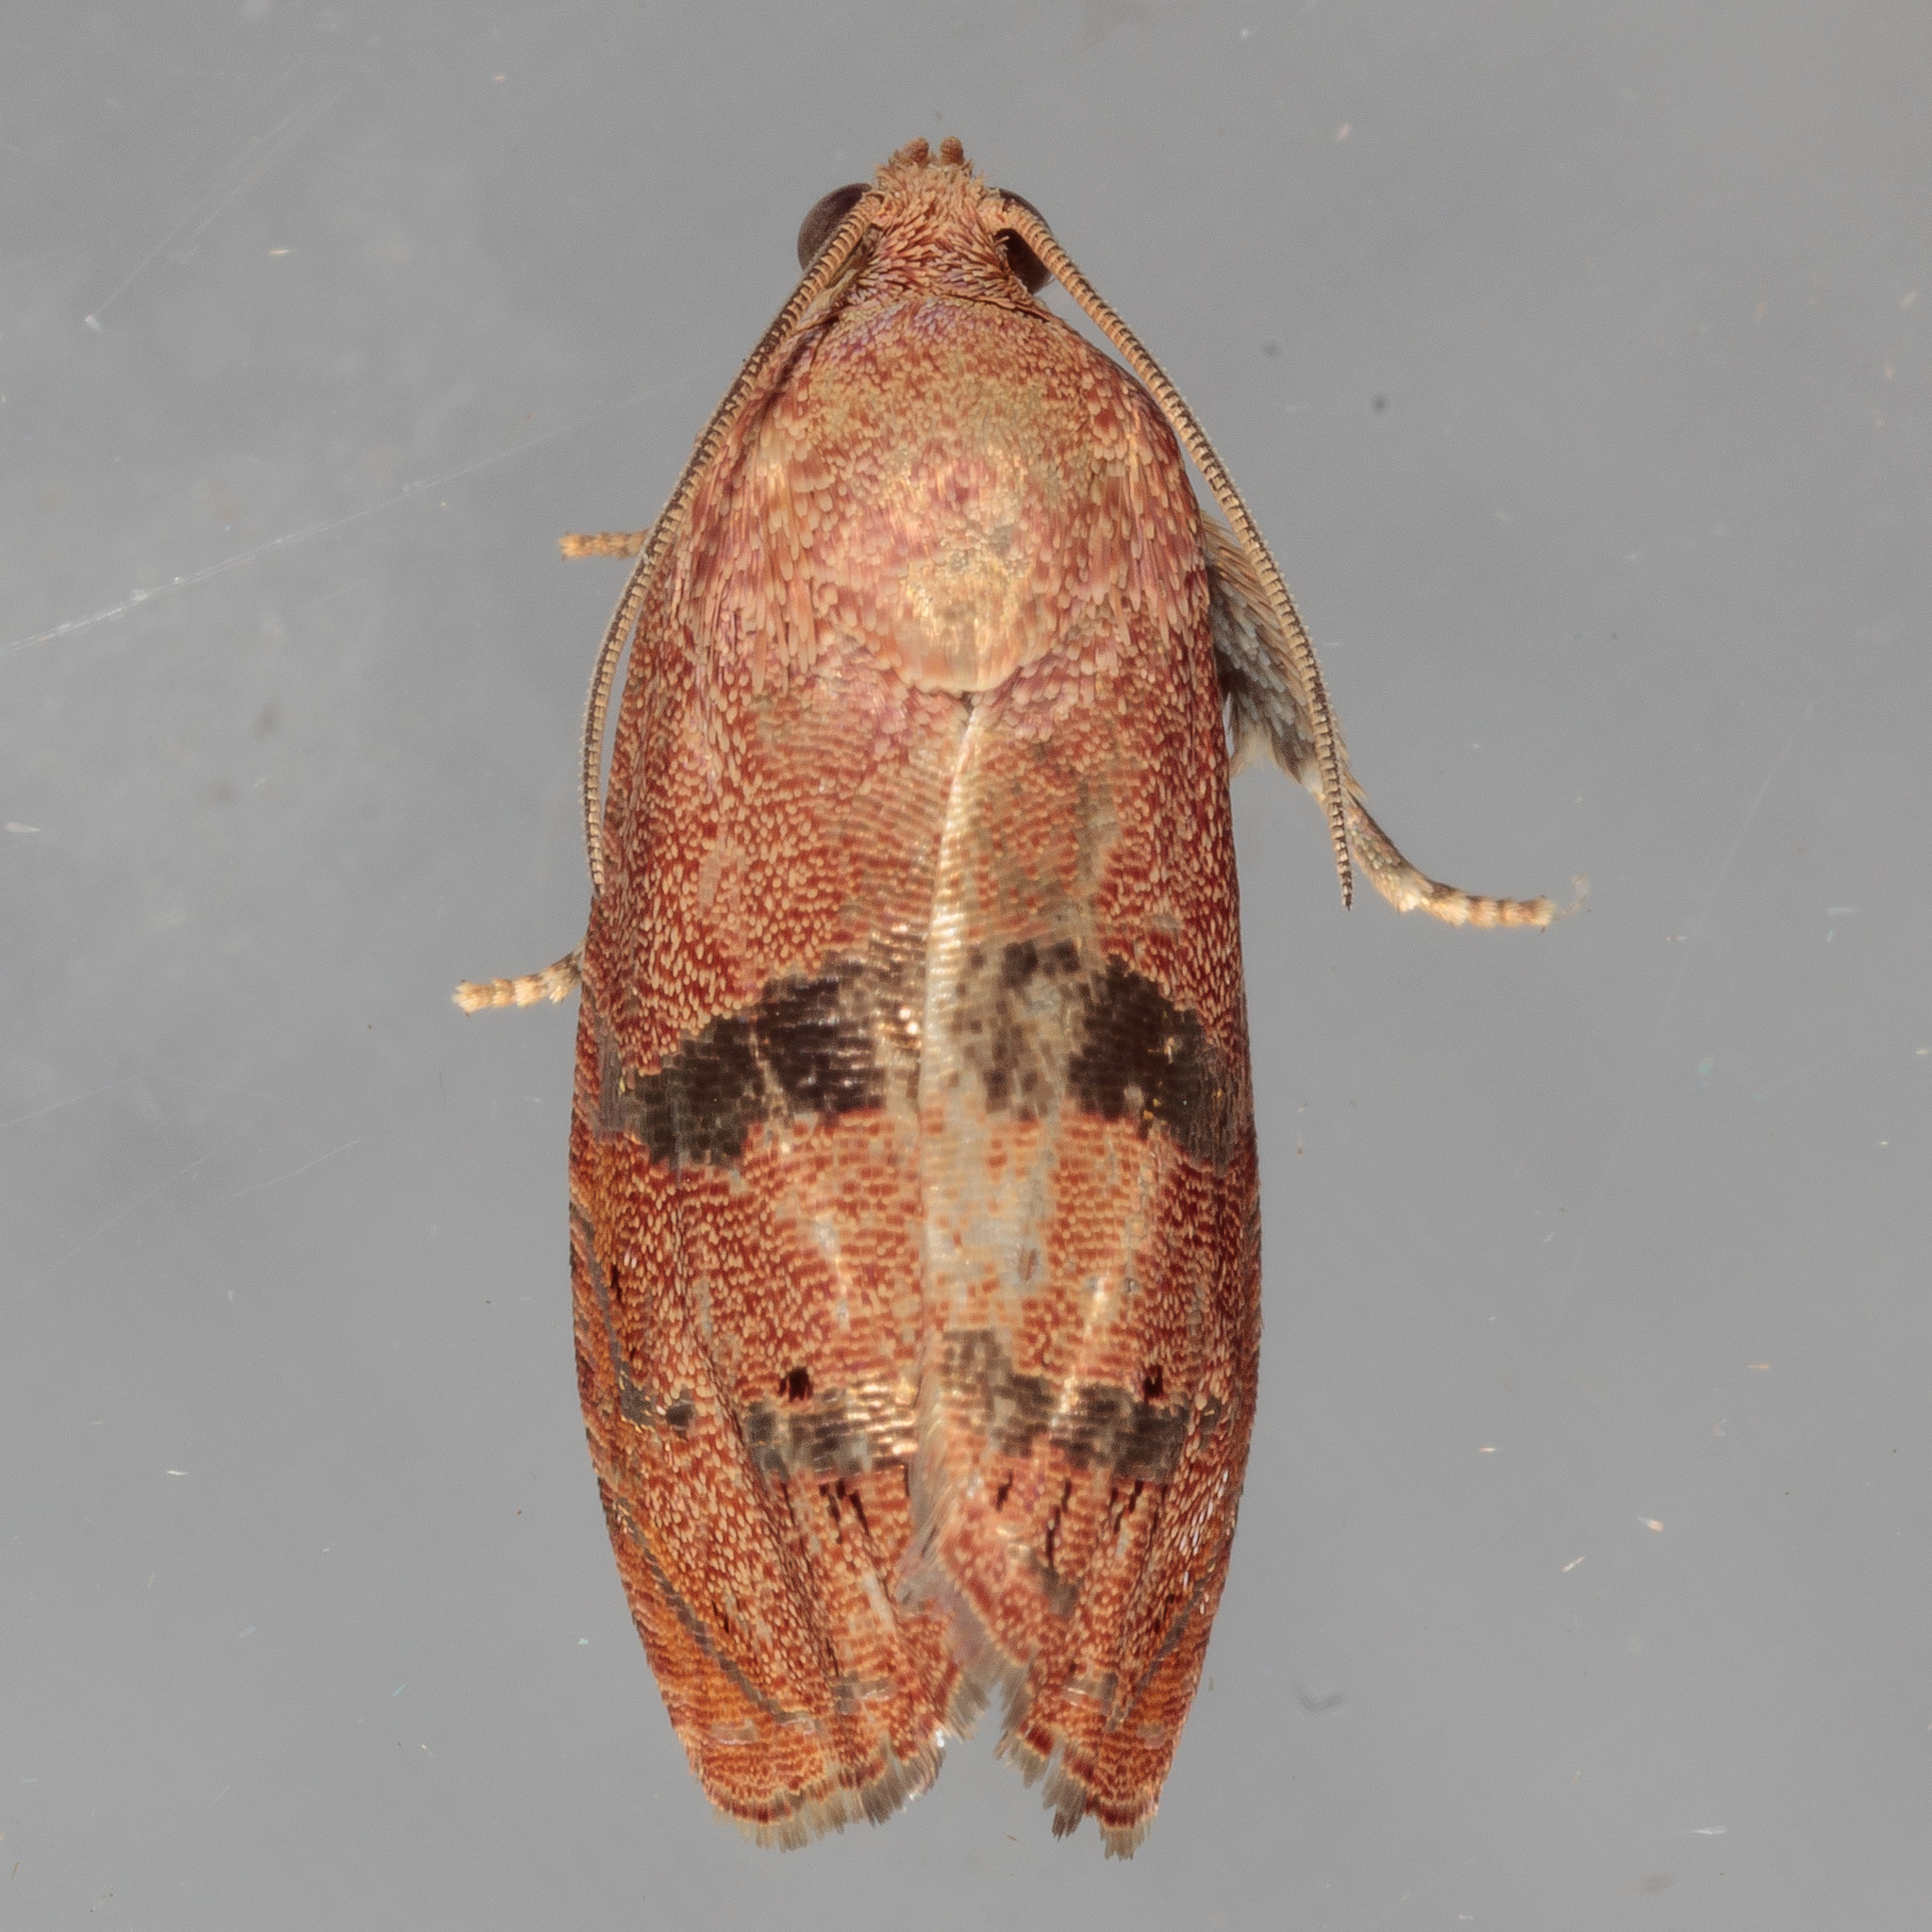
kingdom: Animalia
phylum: Arthropoda
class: Insecta
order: Lepidoptera
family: Tortricidae
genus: Cydia
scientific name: Cydia latiferreana
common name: Filbertworm moth
